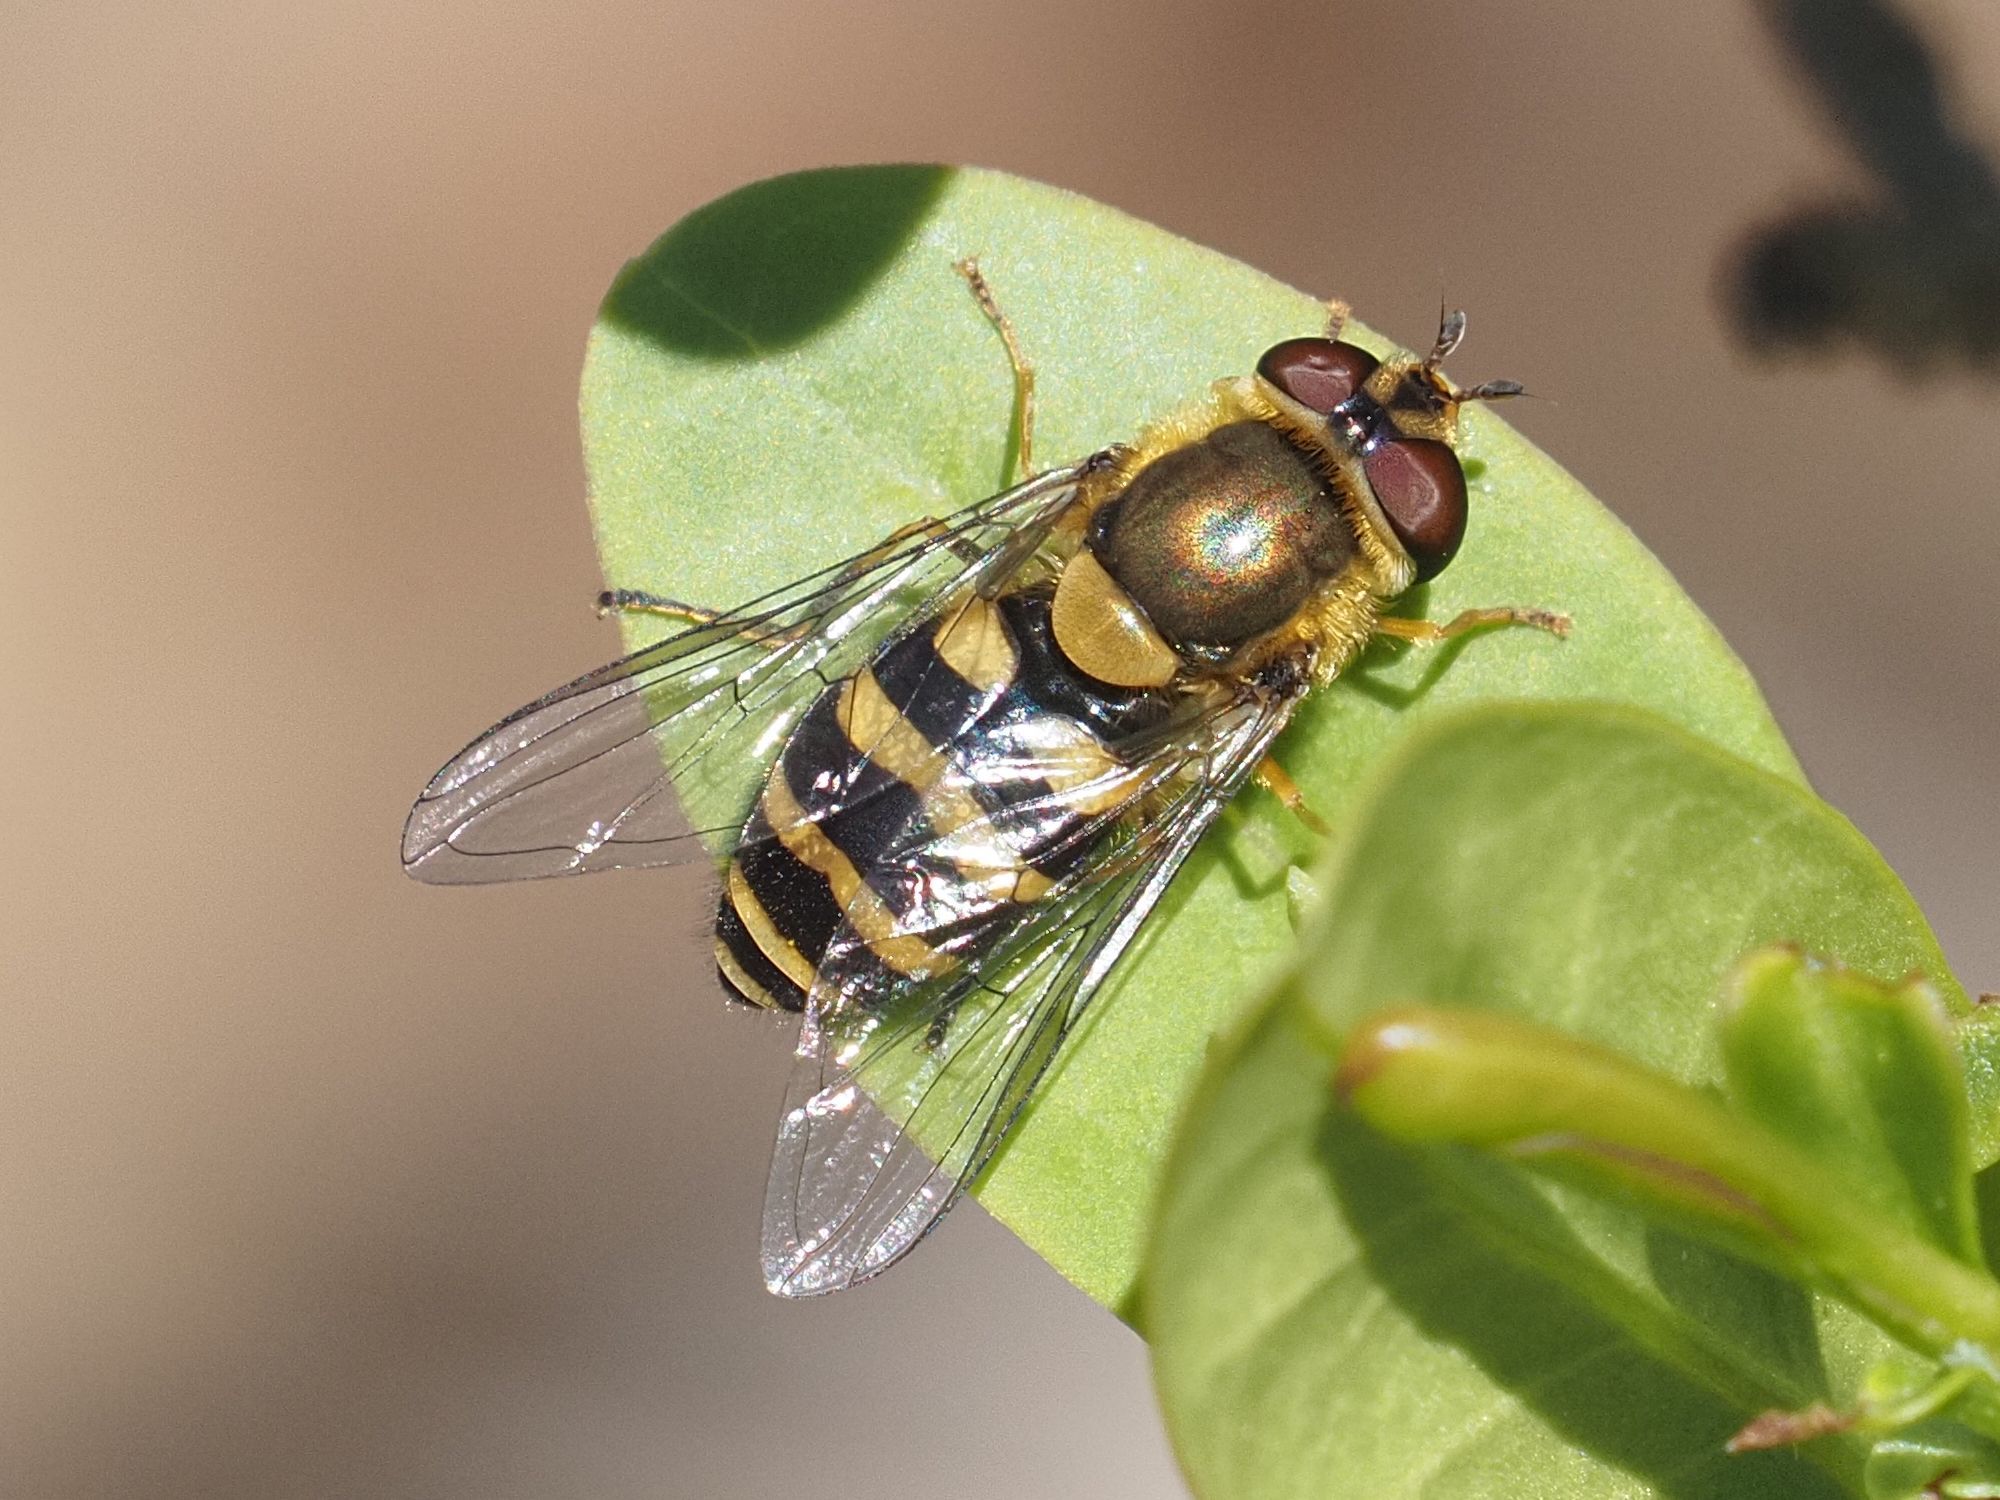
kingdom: Animalia
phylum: Arthropoda
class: Insecta
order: Diptera
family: Syrphidae
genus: Syrphus
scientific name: Syrphus
